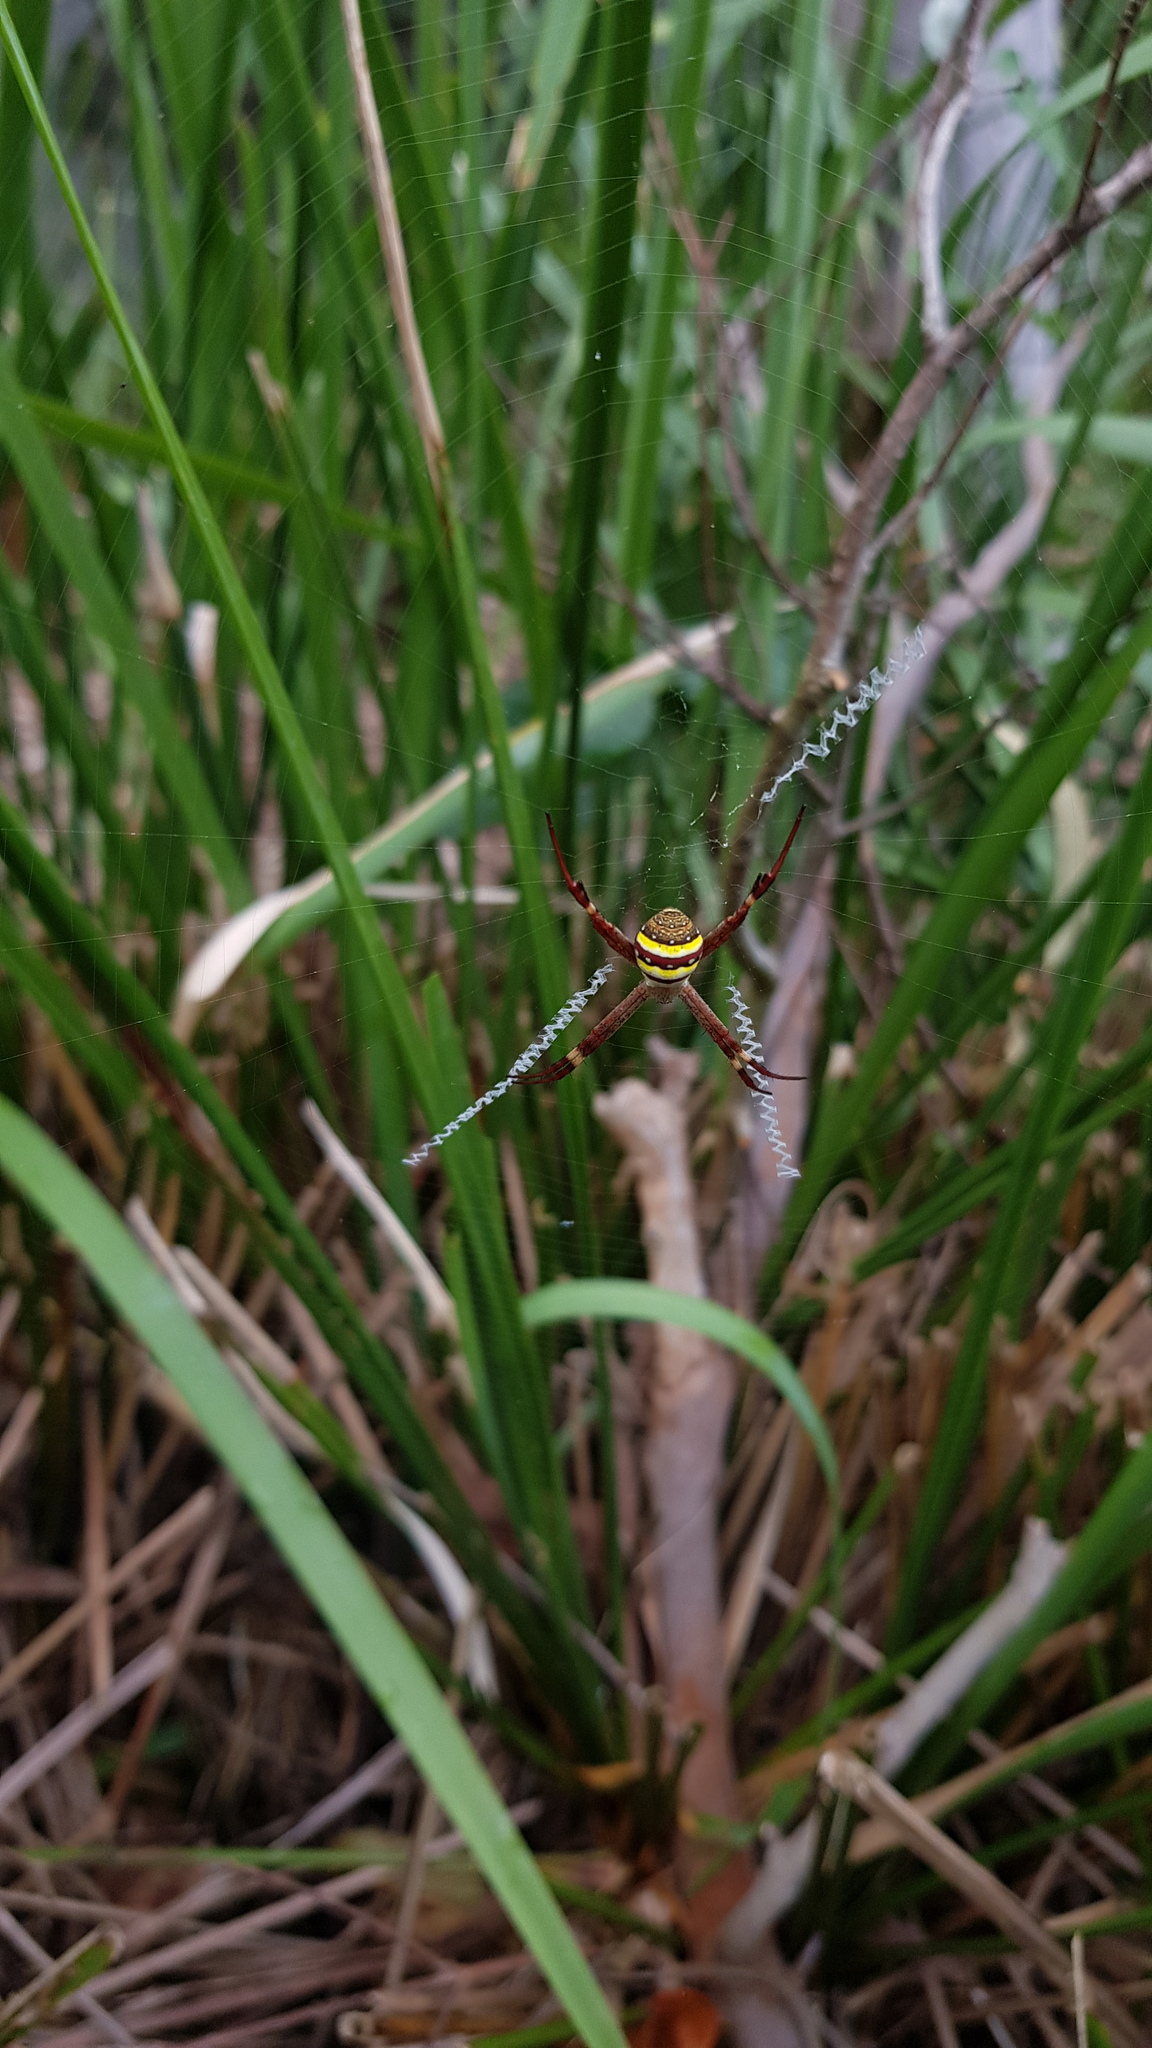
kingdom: Animalia
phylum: Arthropoda
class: Arachnida
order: Araneae
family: Araneidae
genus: Argiope
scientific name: Argiope keyserlingi
